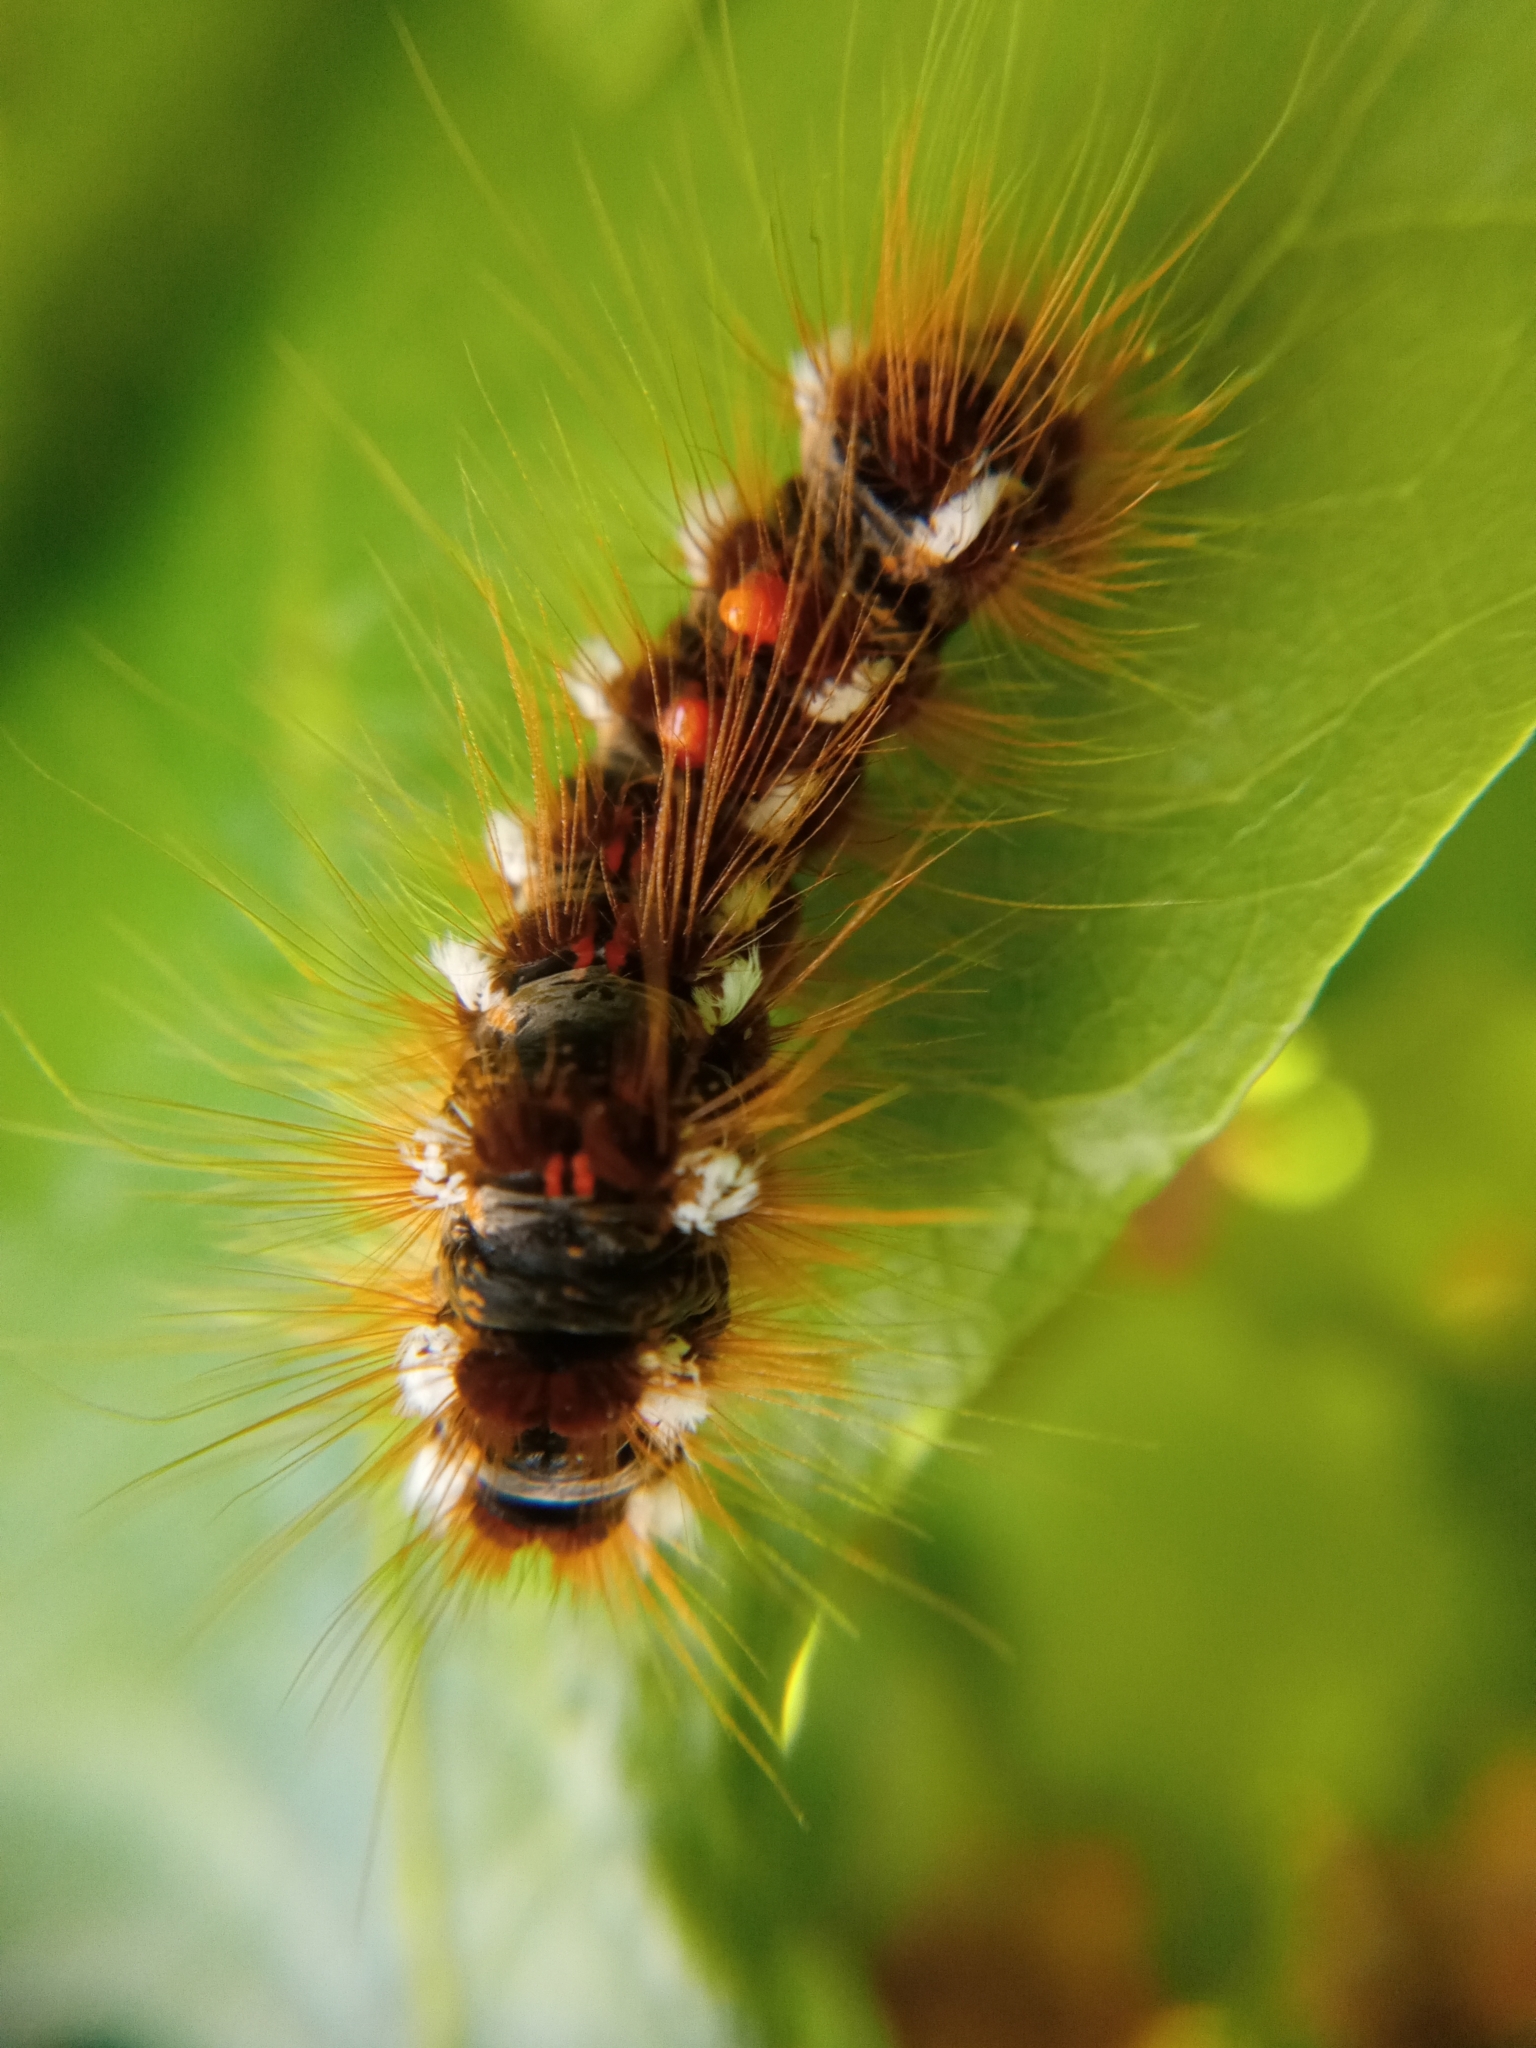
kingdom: Animalia
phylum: Arthropoda
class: Insecta
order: Lepidoptera
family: Erebidae
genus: Euproctis
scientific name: Euproctis chrysorrhoea
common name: Brown-tail
